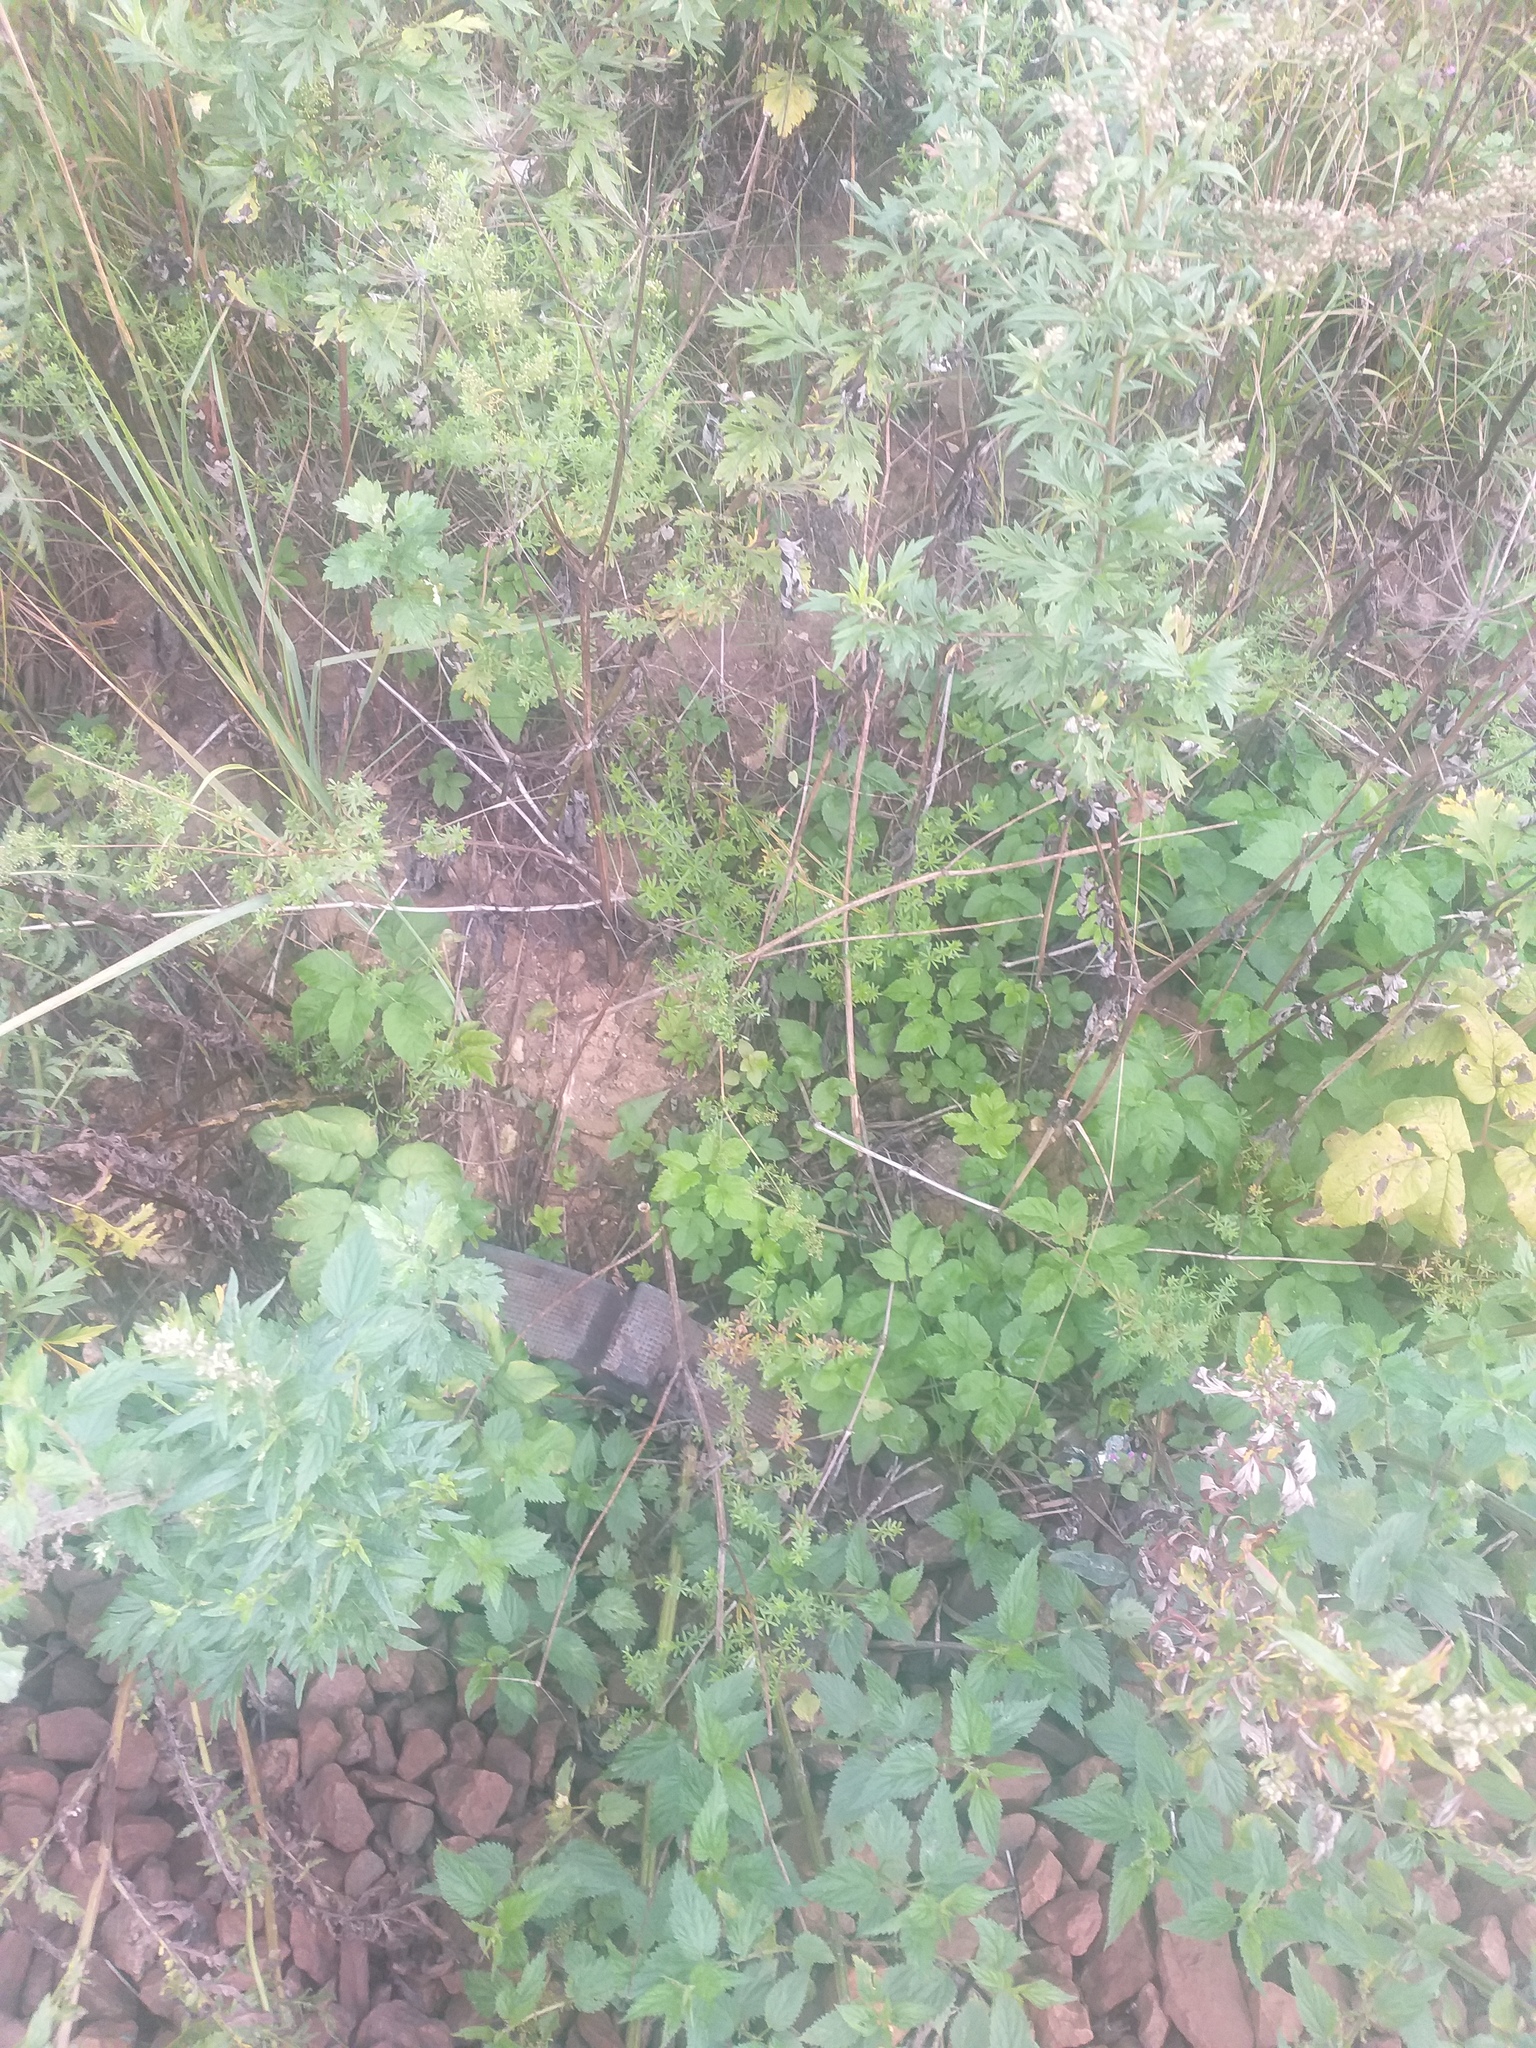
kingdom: Plantae
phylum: Tracheophyta
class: Magnoliopsida
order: Gentianales
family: Rubiaceae
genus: Galium
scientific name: Galium mollugo
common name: Hedge bedstraw
